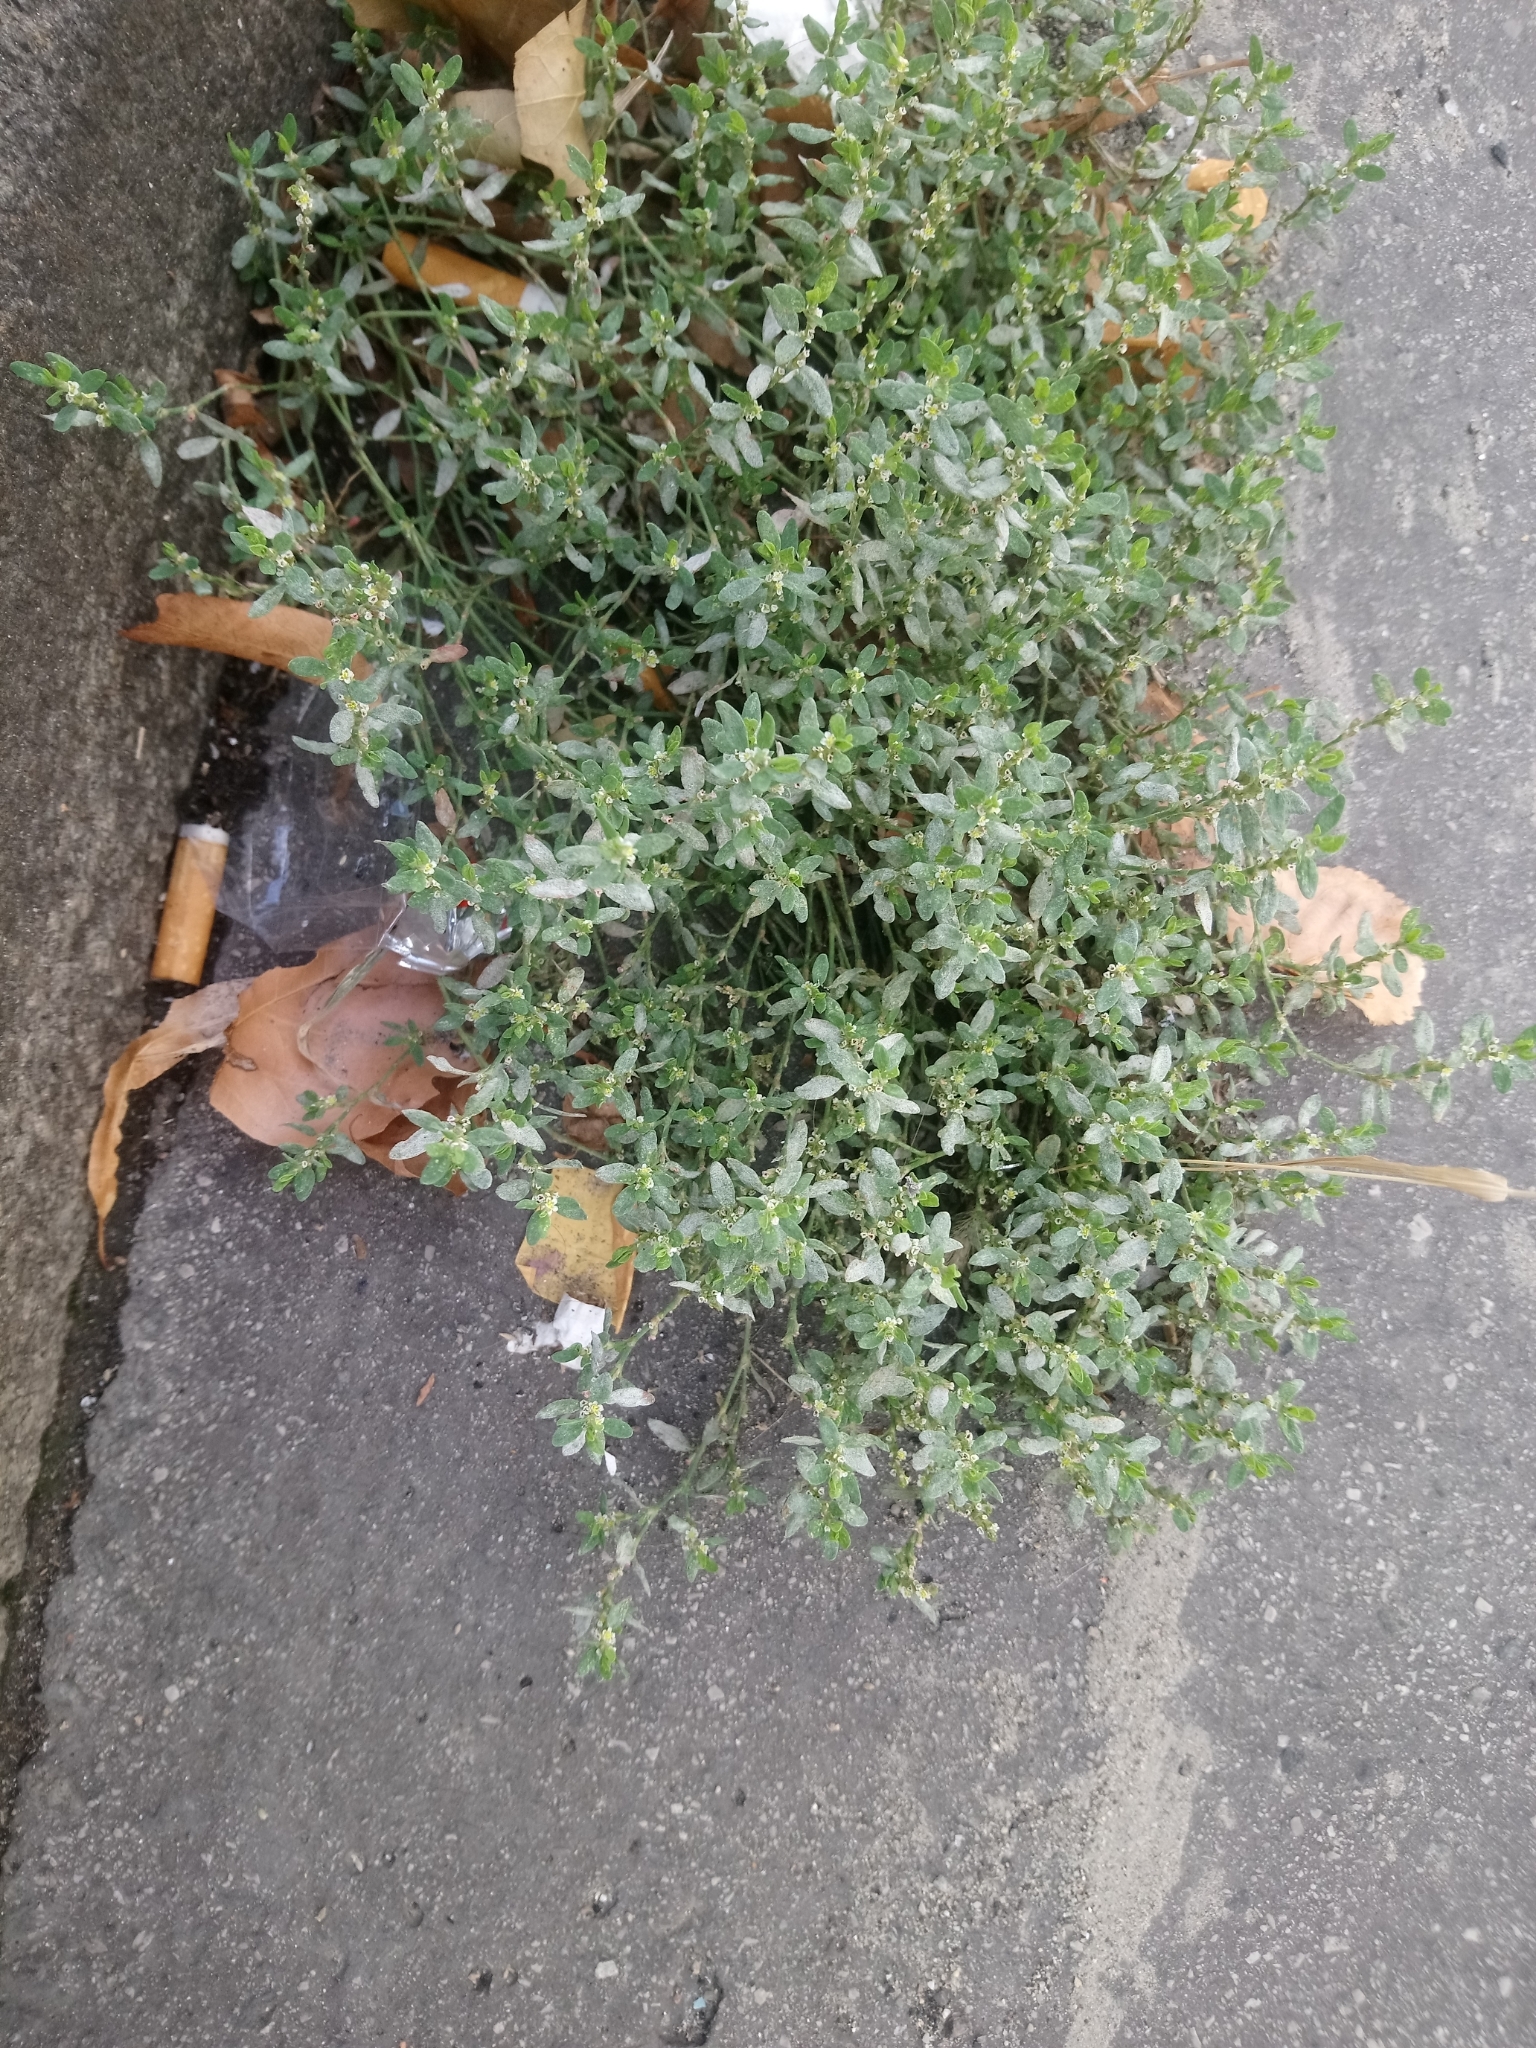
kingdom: Plantae
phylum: Tracheophyta
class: Magnoliopsida
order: Caryophyllales
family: Polygonaceae
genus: Polygonum
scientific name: Polygonum aviculare
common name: Prostrate knotweed
